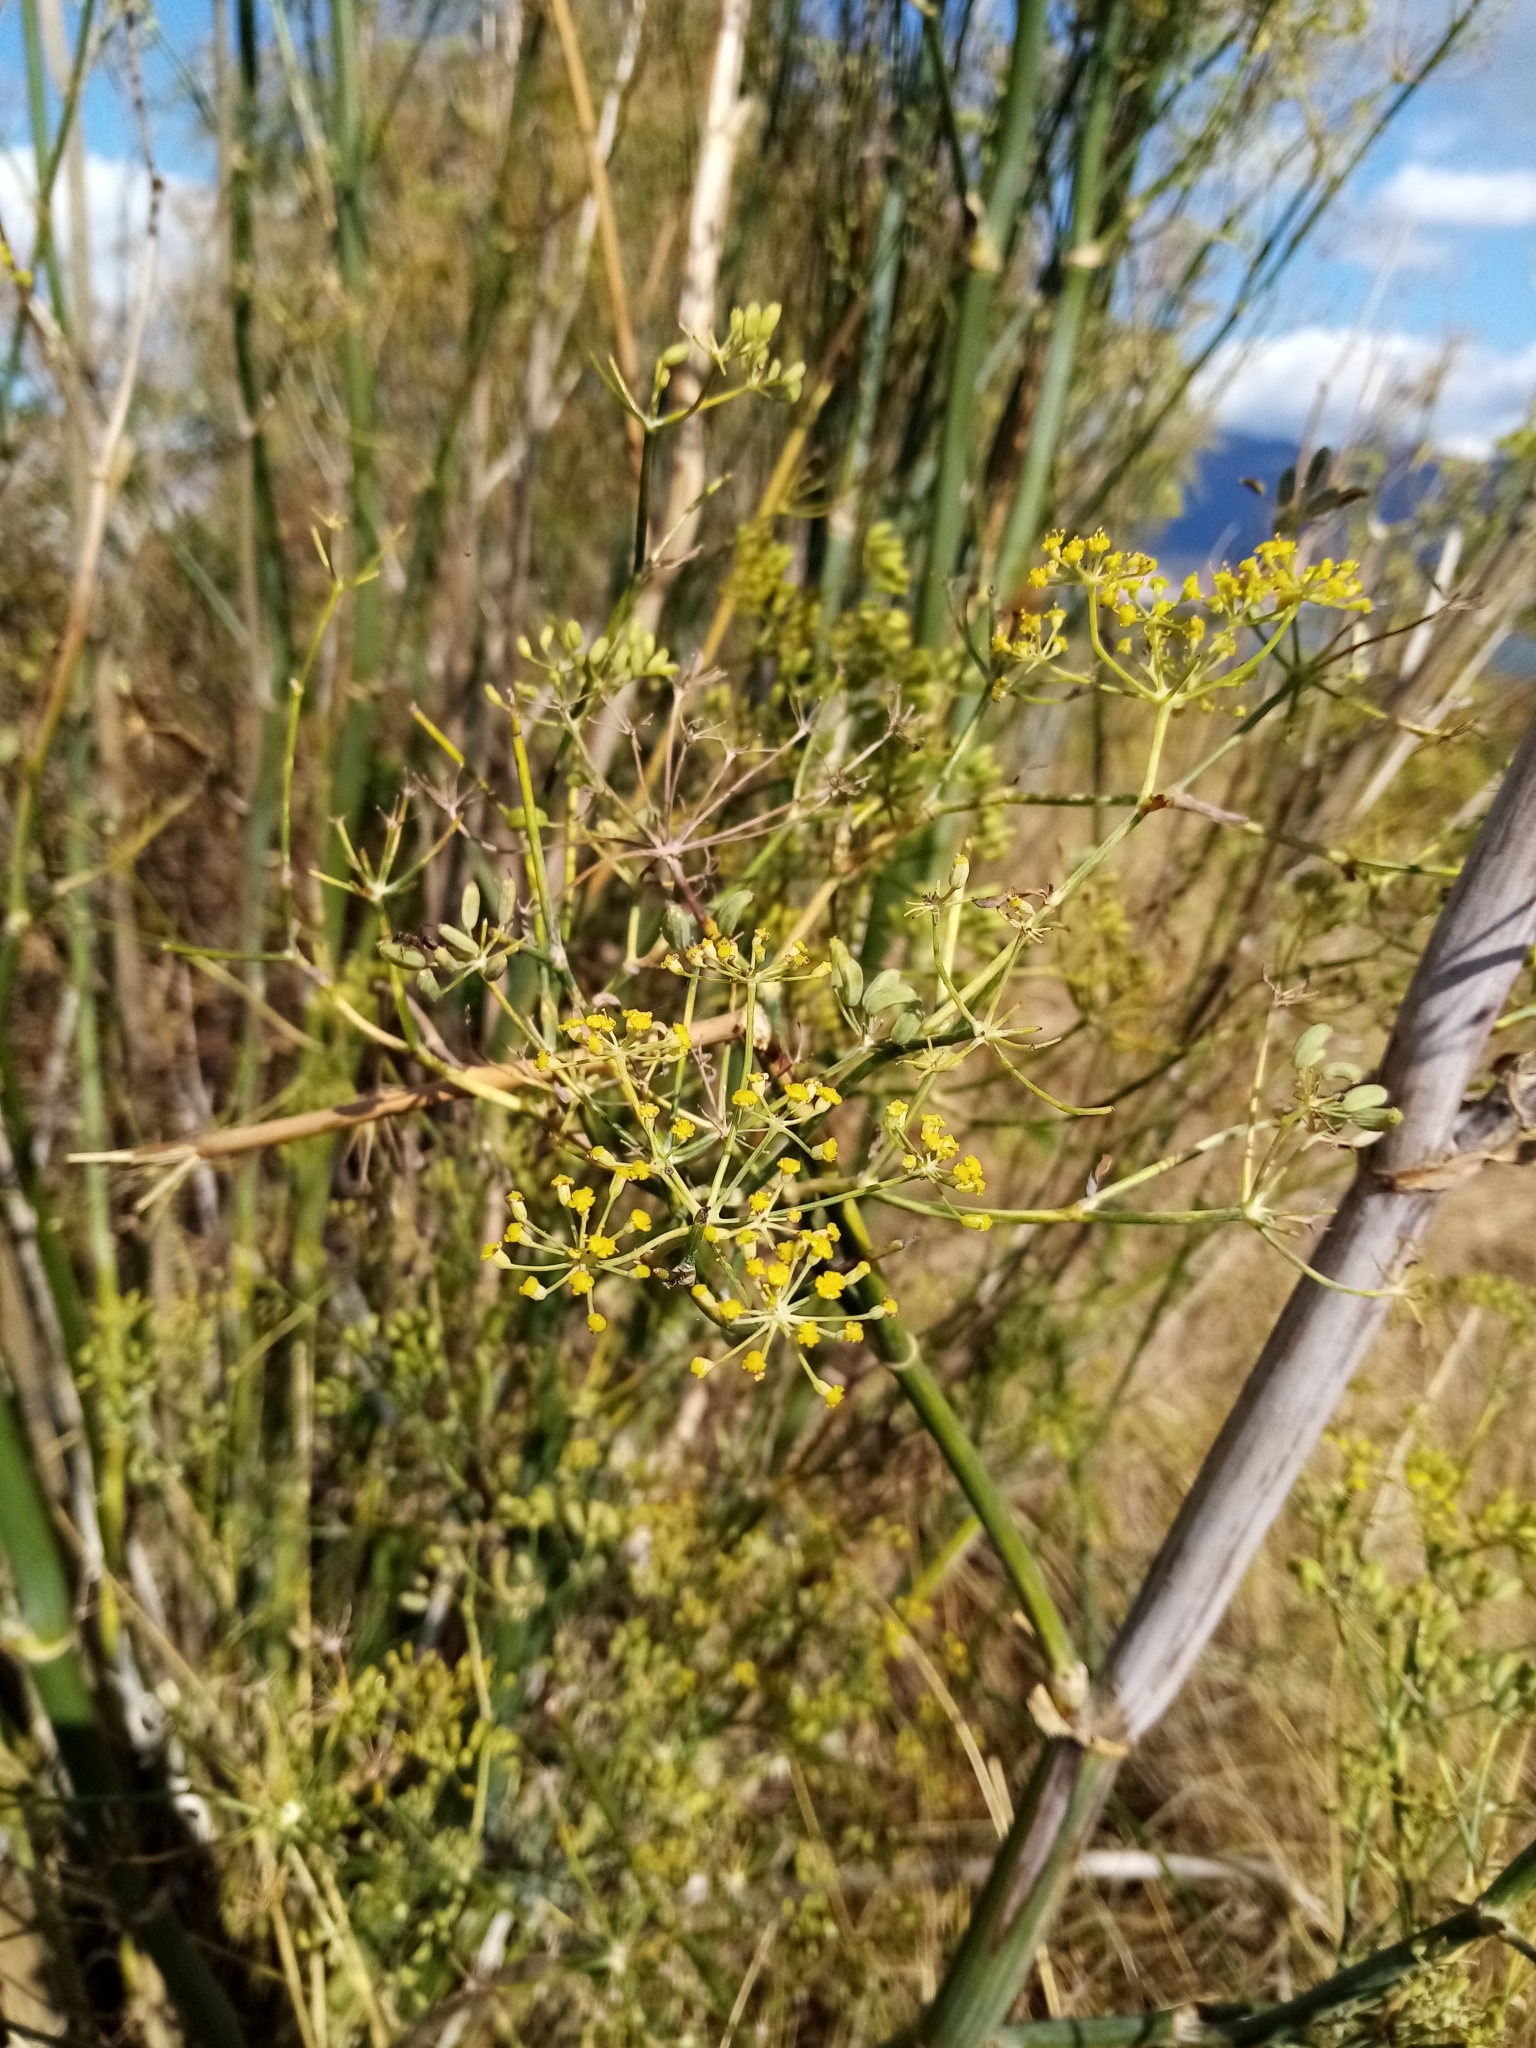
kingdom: Plantae
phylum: Tracheophyta
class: Magnoliopsida
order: Apiales
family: Apiaceae
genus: Foeniculum
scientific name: Foeniculum vulgare
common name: Fennel
